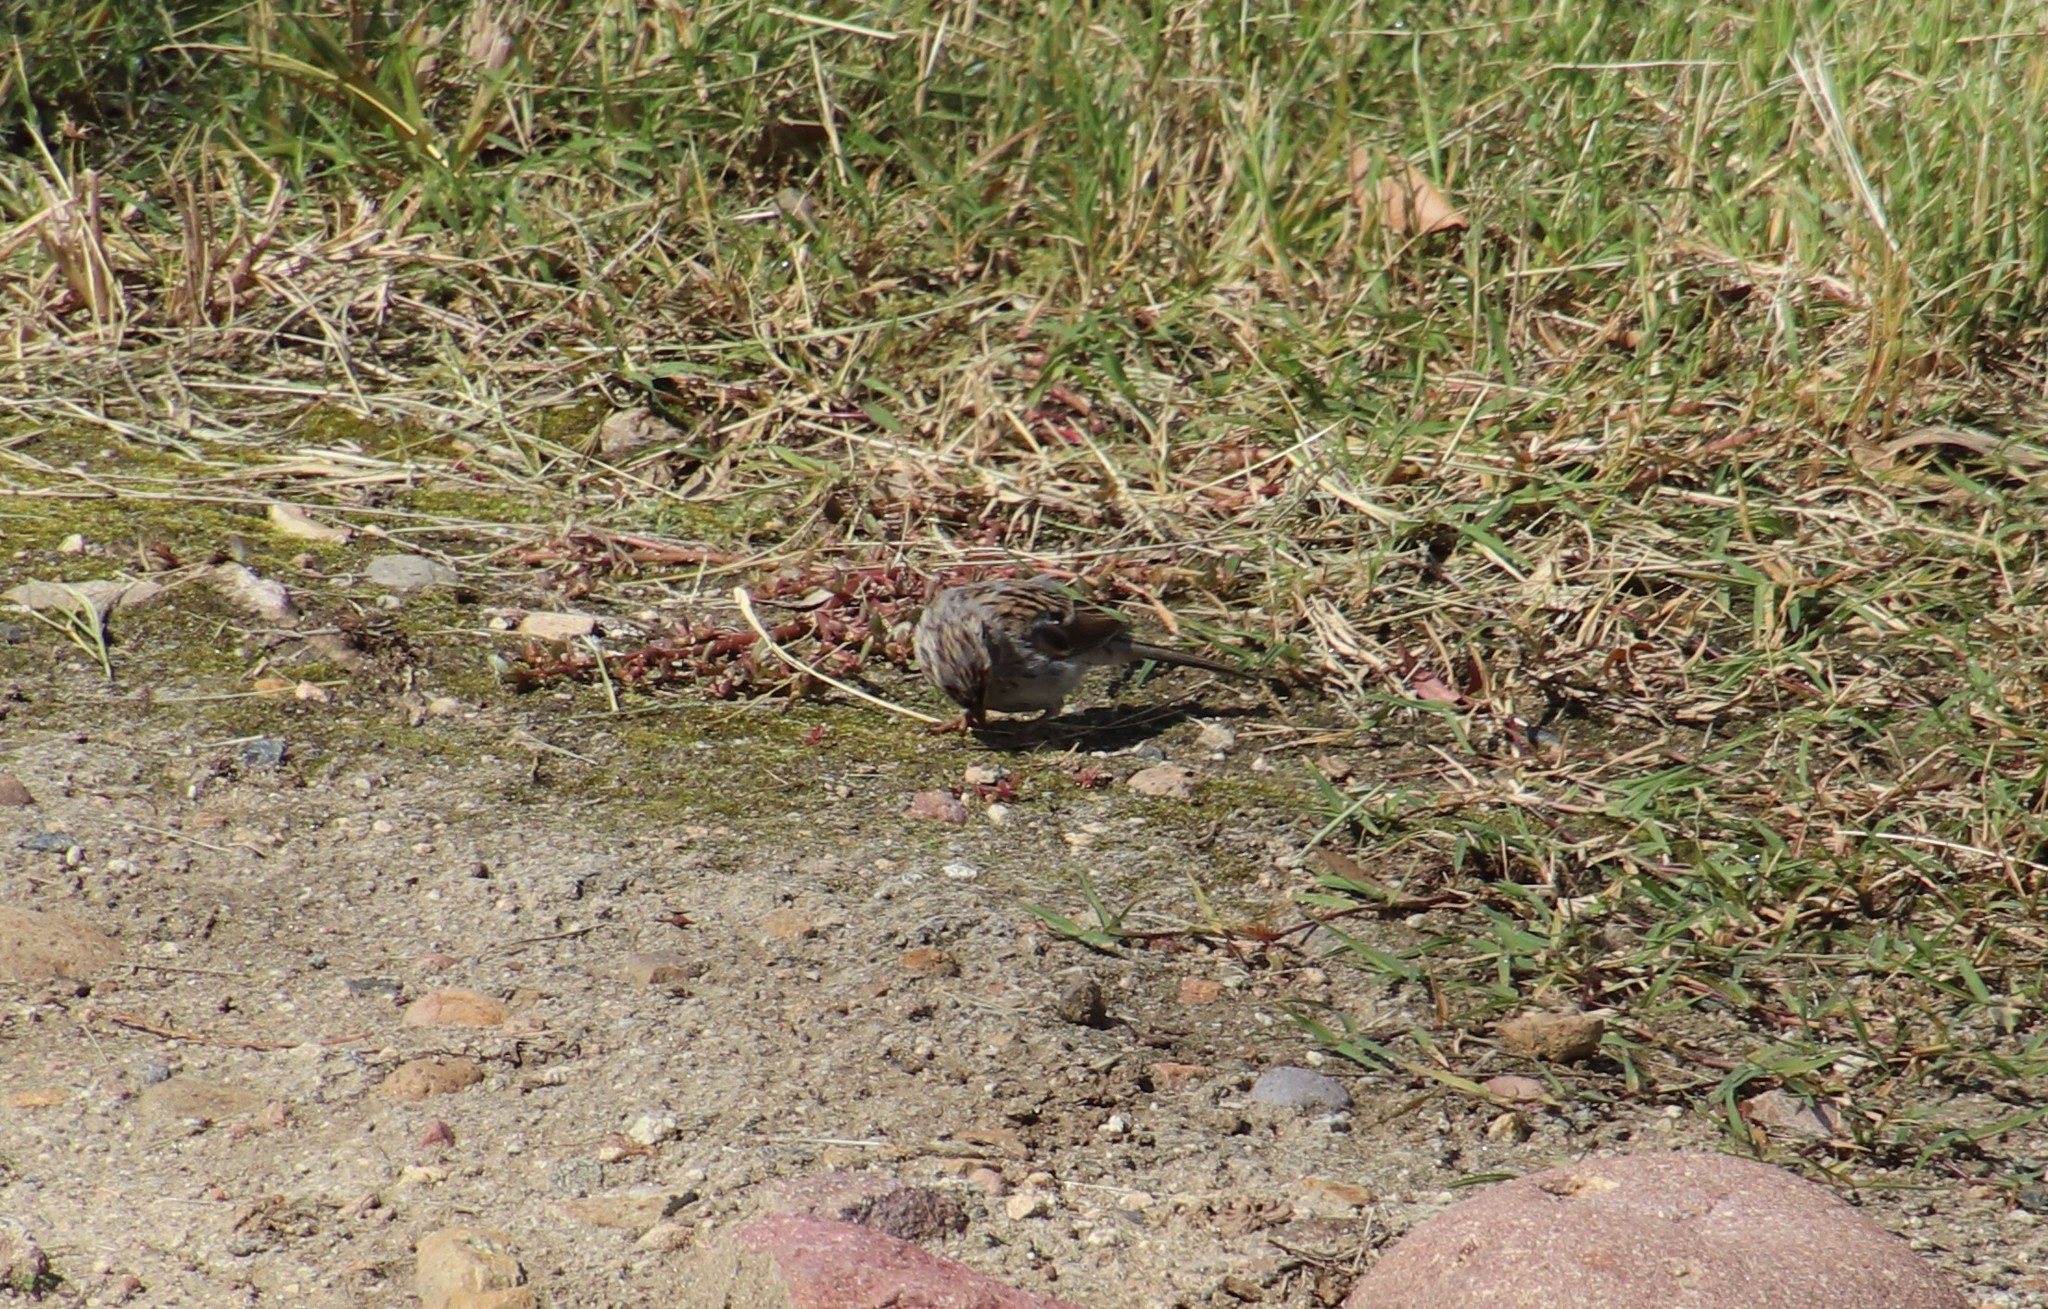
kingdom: Animalia
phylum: Chordata
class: Aves
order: Passeriformes
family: Passerellidae
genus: Spizella
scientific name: Spizella passerina
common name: Chipping sparrow
